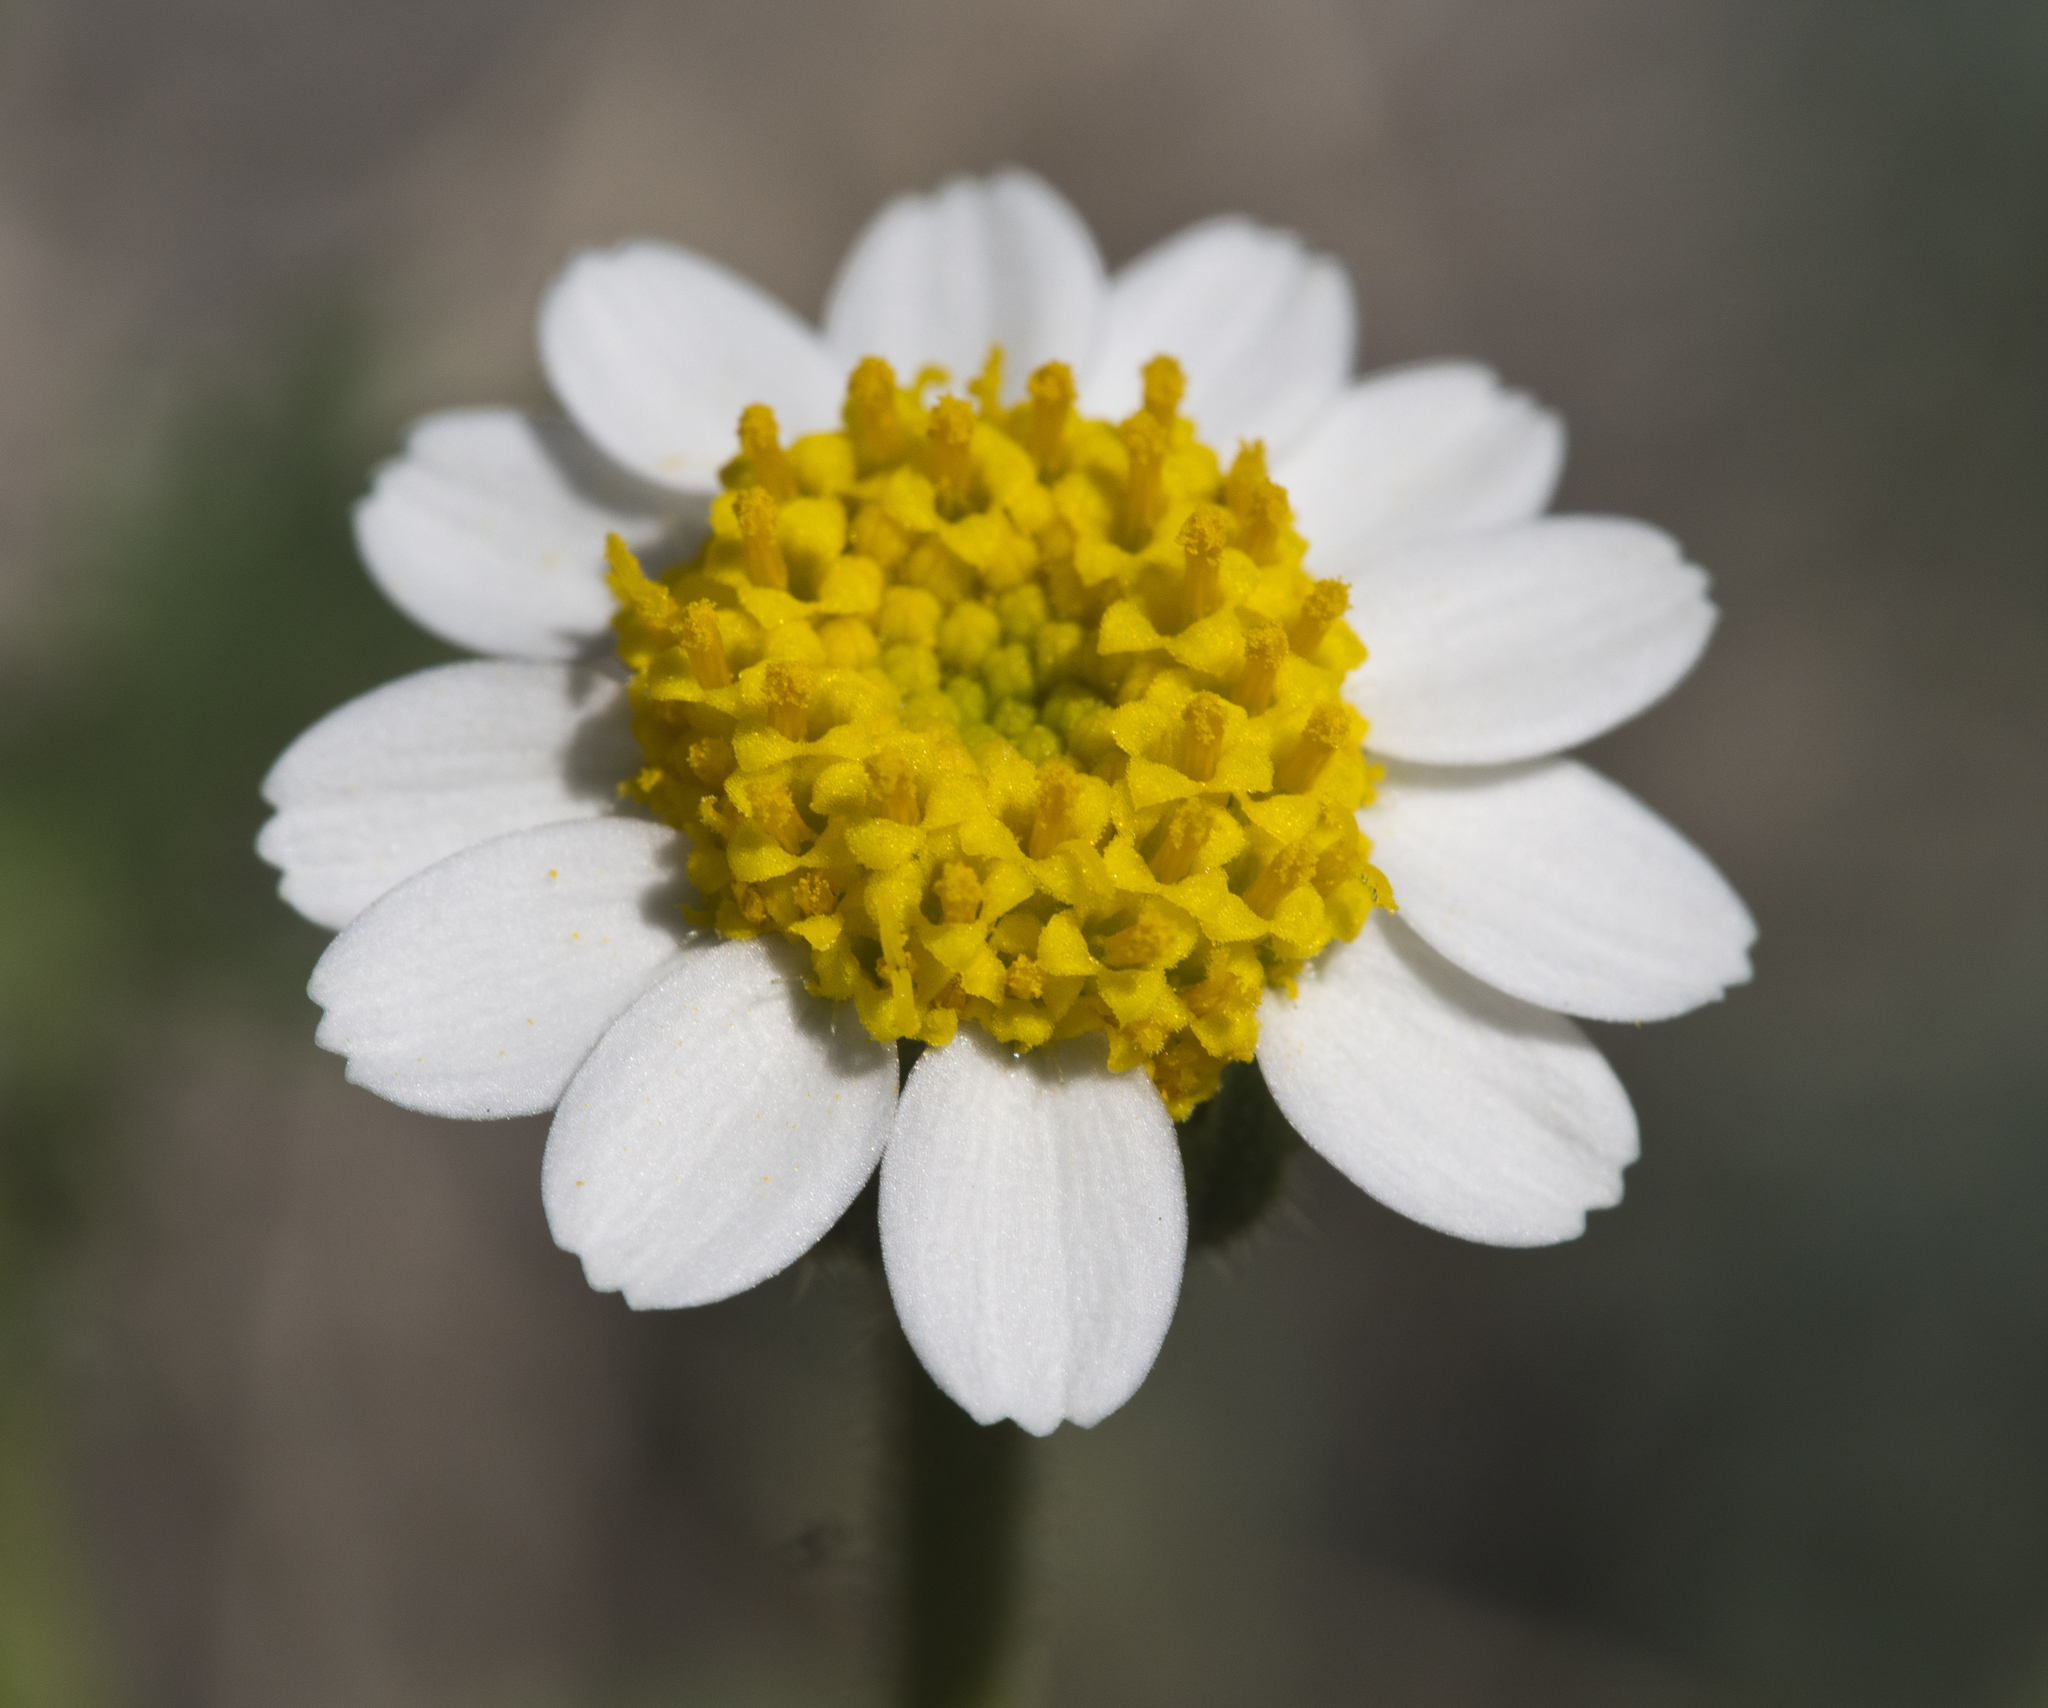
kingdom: Plantae
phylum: Tracheophyta
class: Magnoliopsida
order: Asterales
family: Asteraceae
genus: Laphamia
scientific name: Laphamia emoryi
